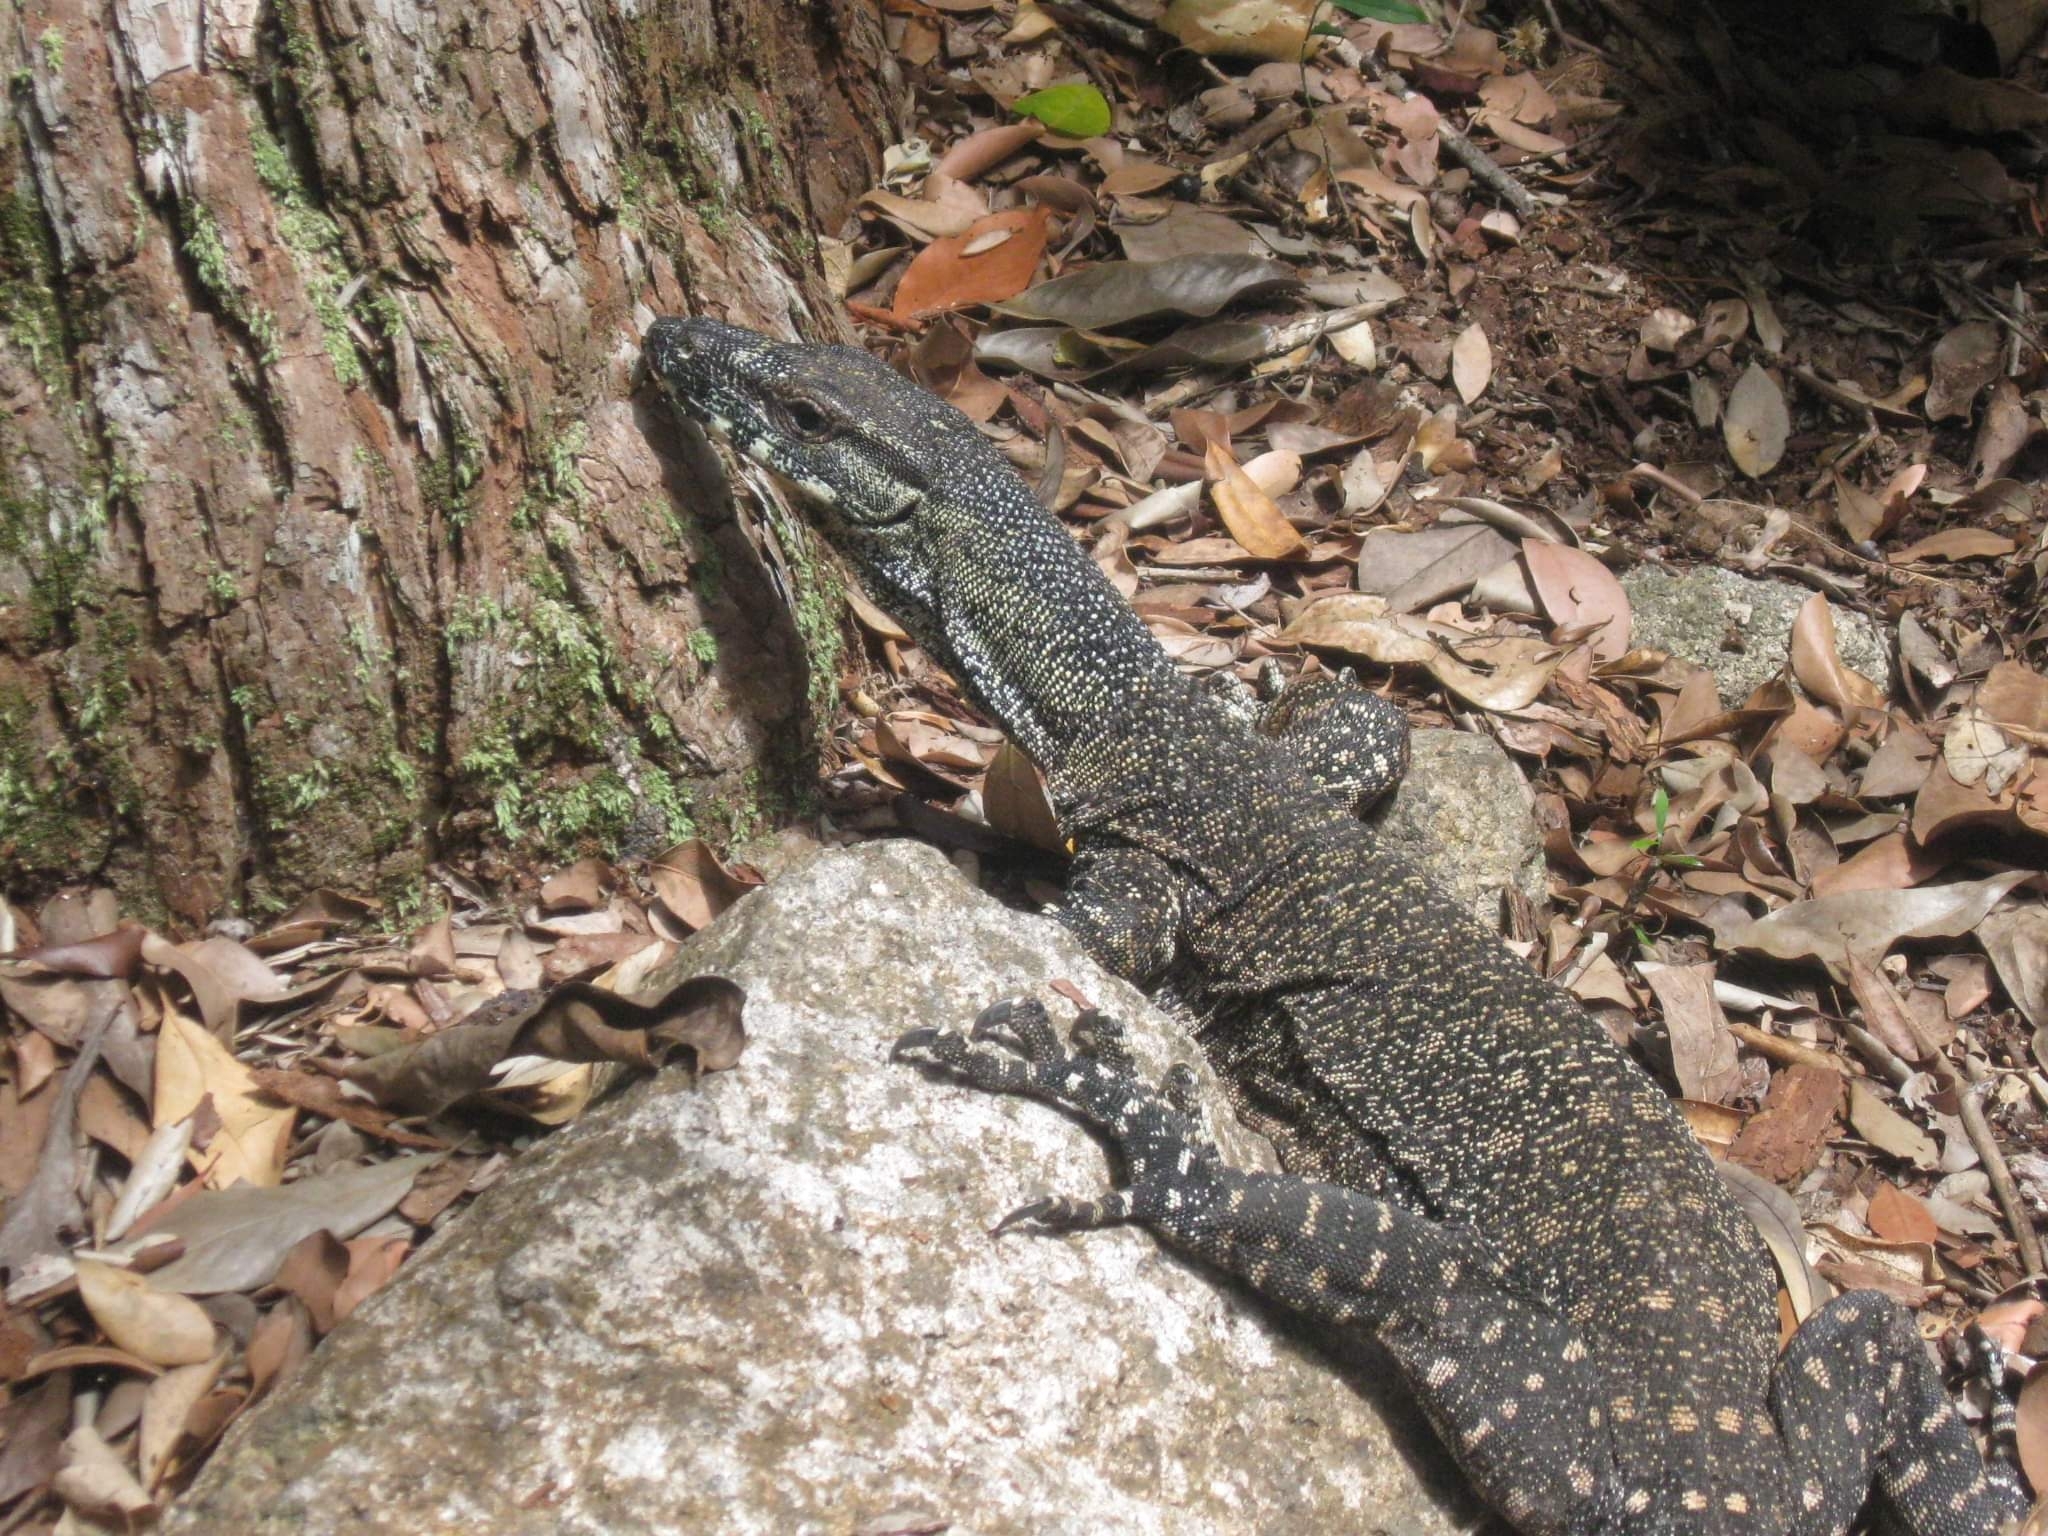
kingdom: Animalia
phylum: Chordata
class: Squamata
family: Varanidae
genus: Varanus
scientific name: Varanus varius
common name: Lace monitor
